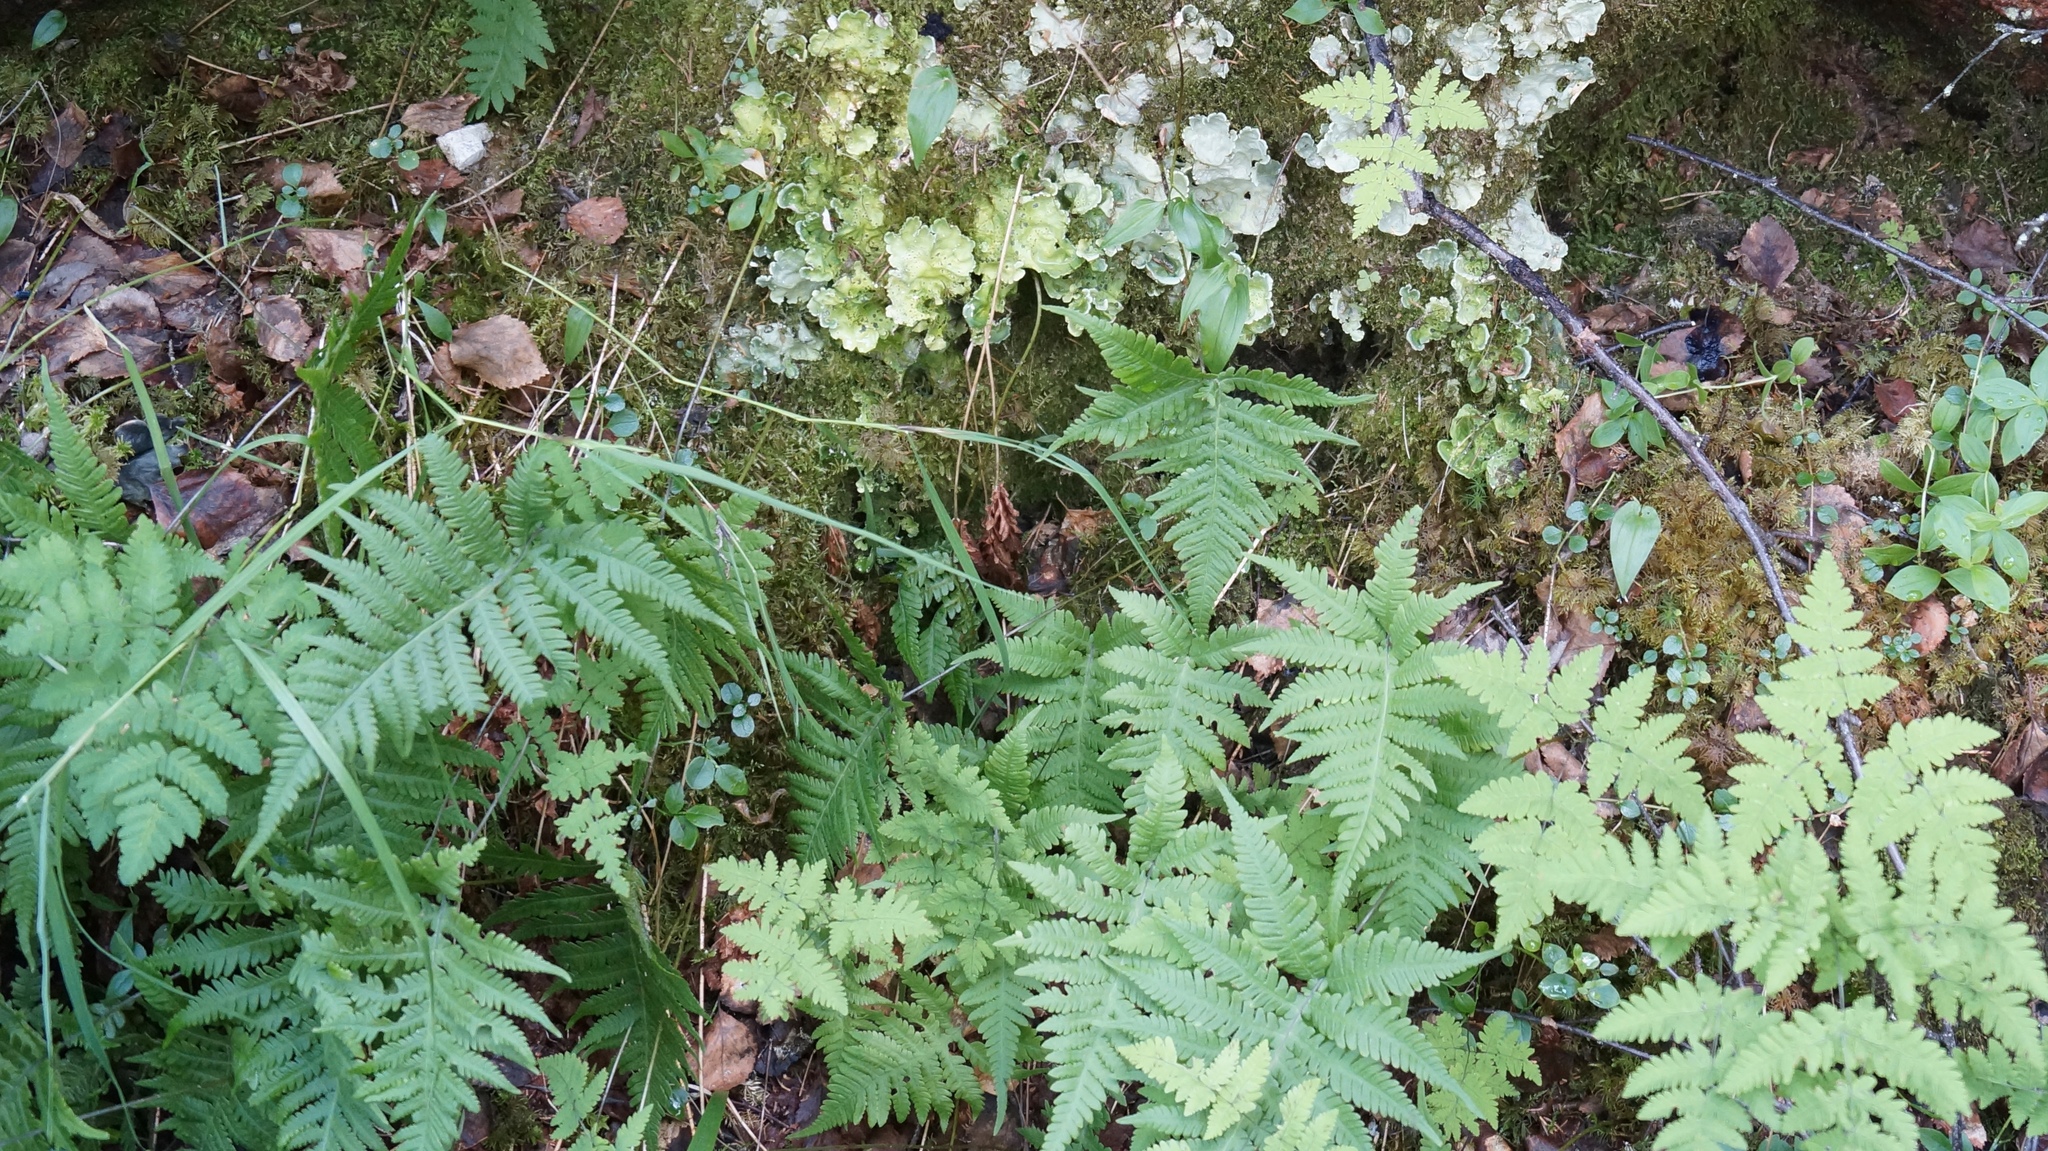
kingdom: Plantae
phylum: Tracheophyta
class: Polypodiopsida
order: Polypodiales
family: Thelypteridaceae
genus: Phegopteris
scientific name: Phegopteris connectilis
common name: Beech fern
